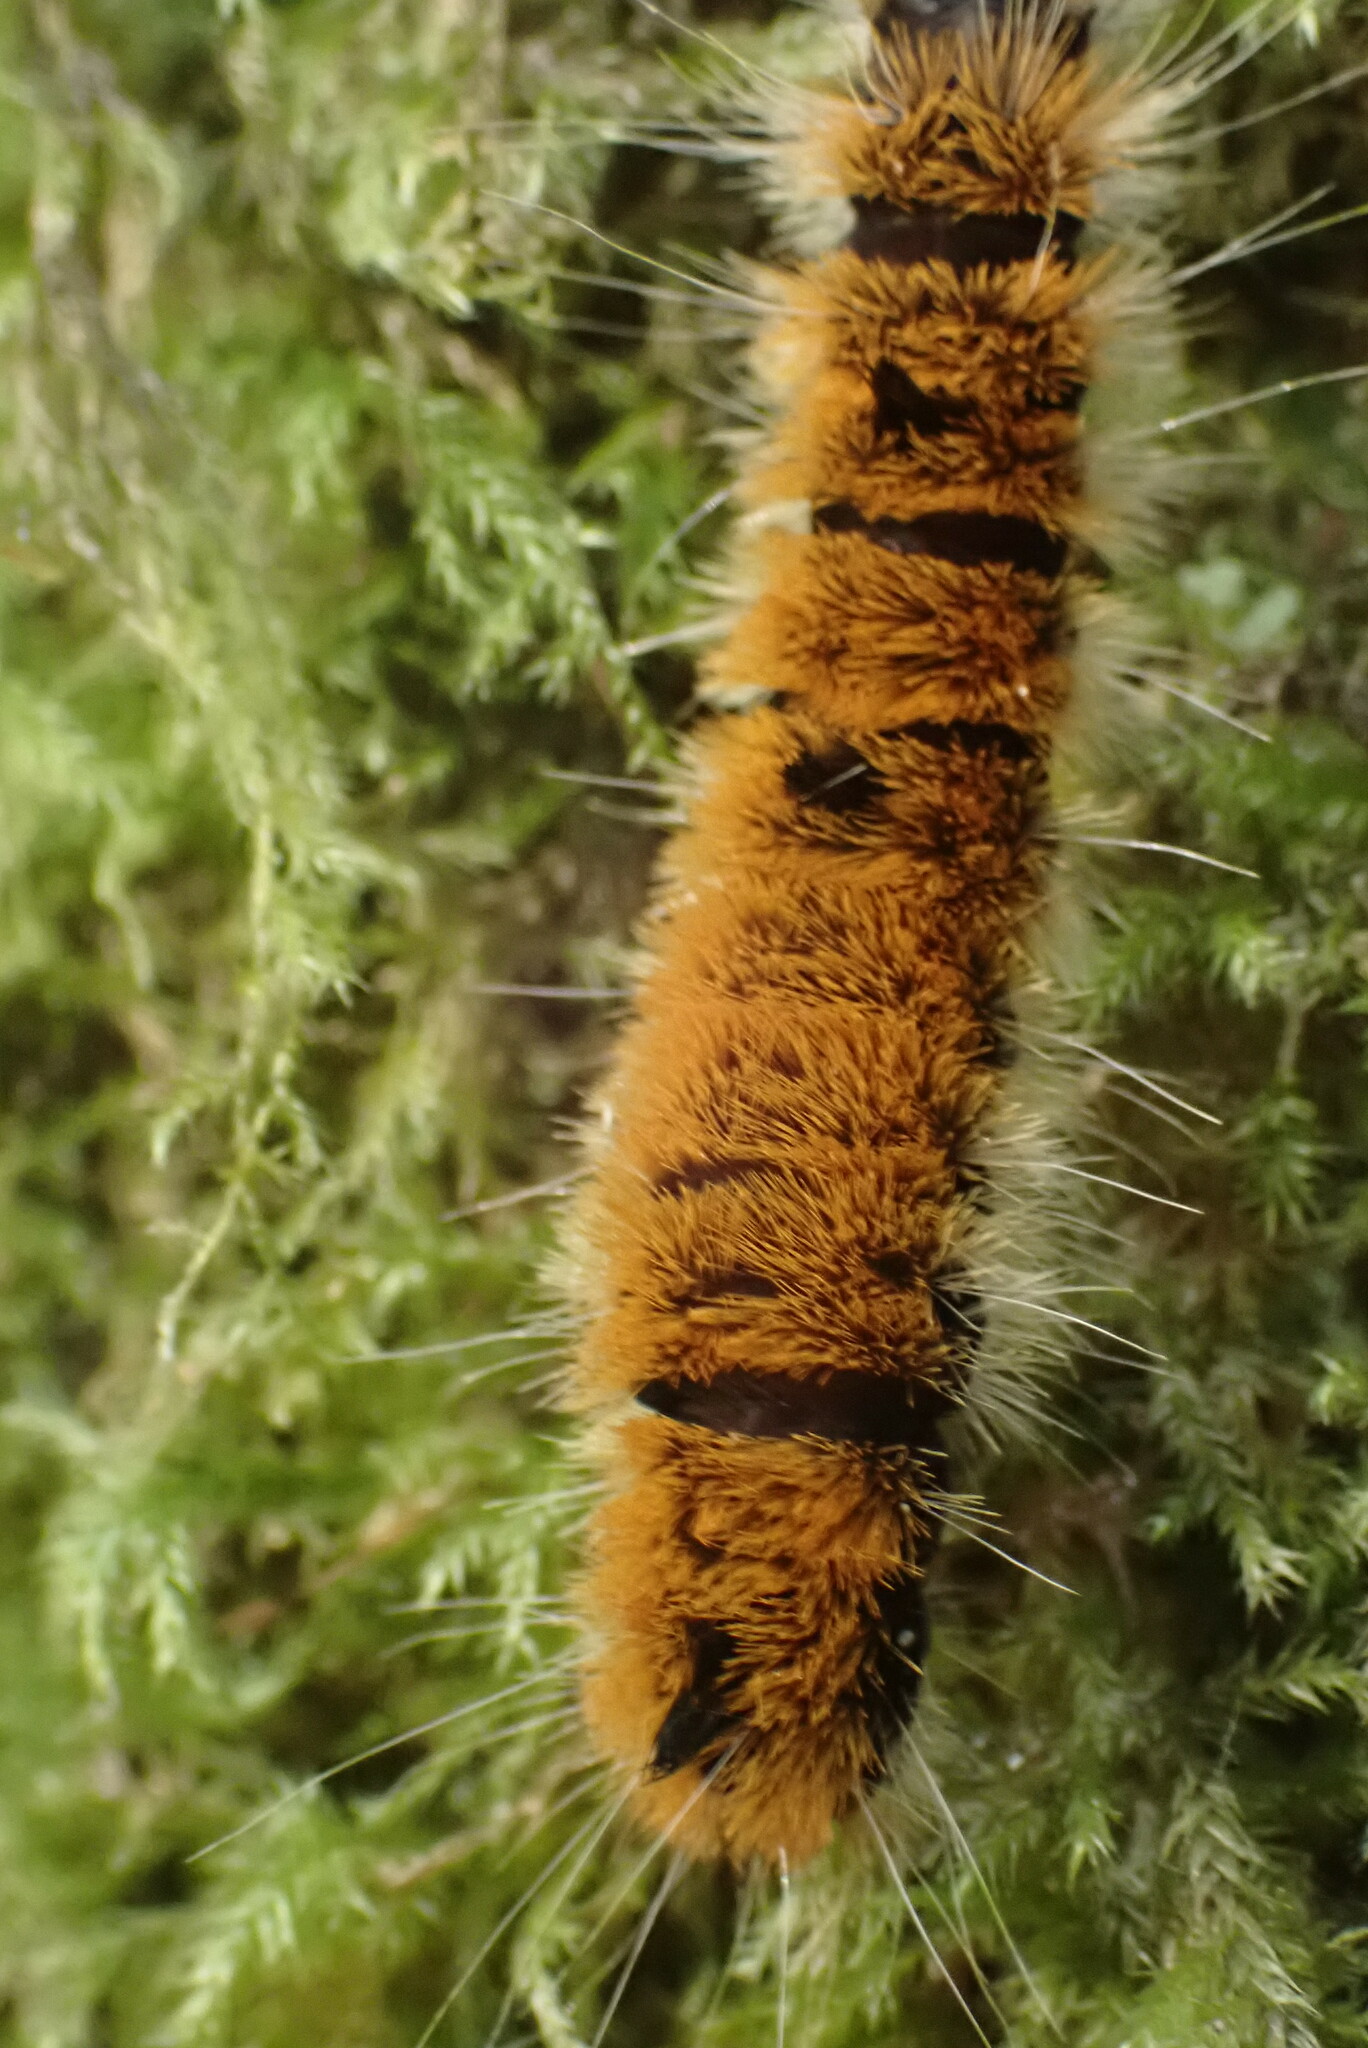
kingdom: Animalia
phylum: Arthropoda
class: Insecta
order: Lepidoptera
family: Noctuidae
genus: Acronicta
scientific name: Acronicta insita
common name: Large gray dagger
